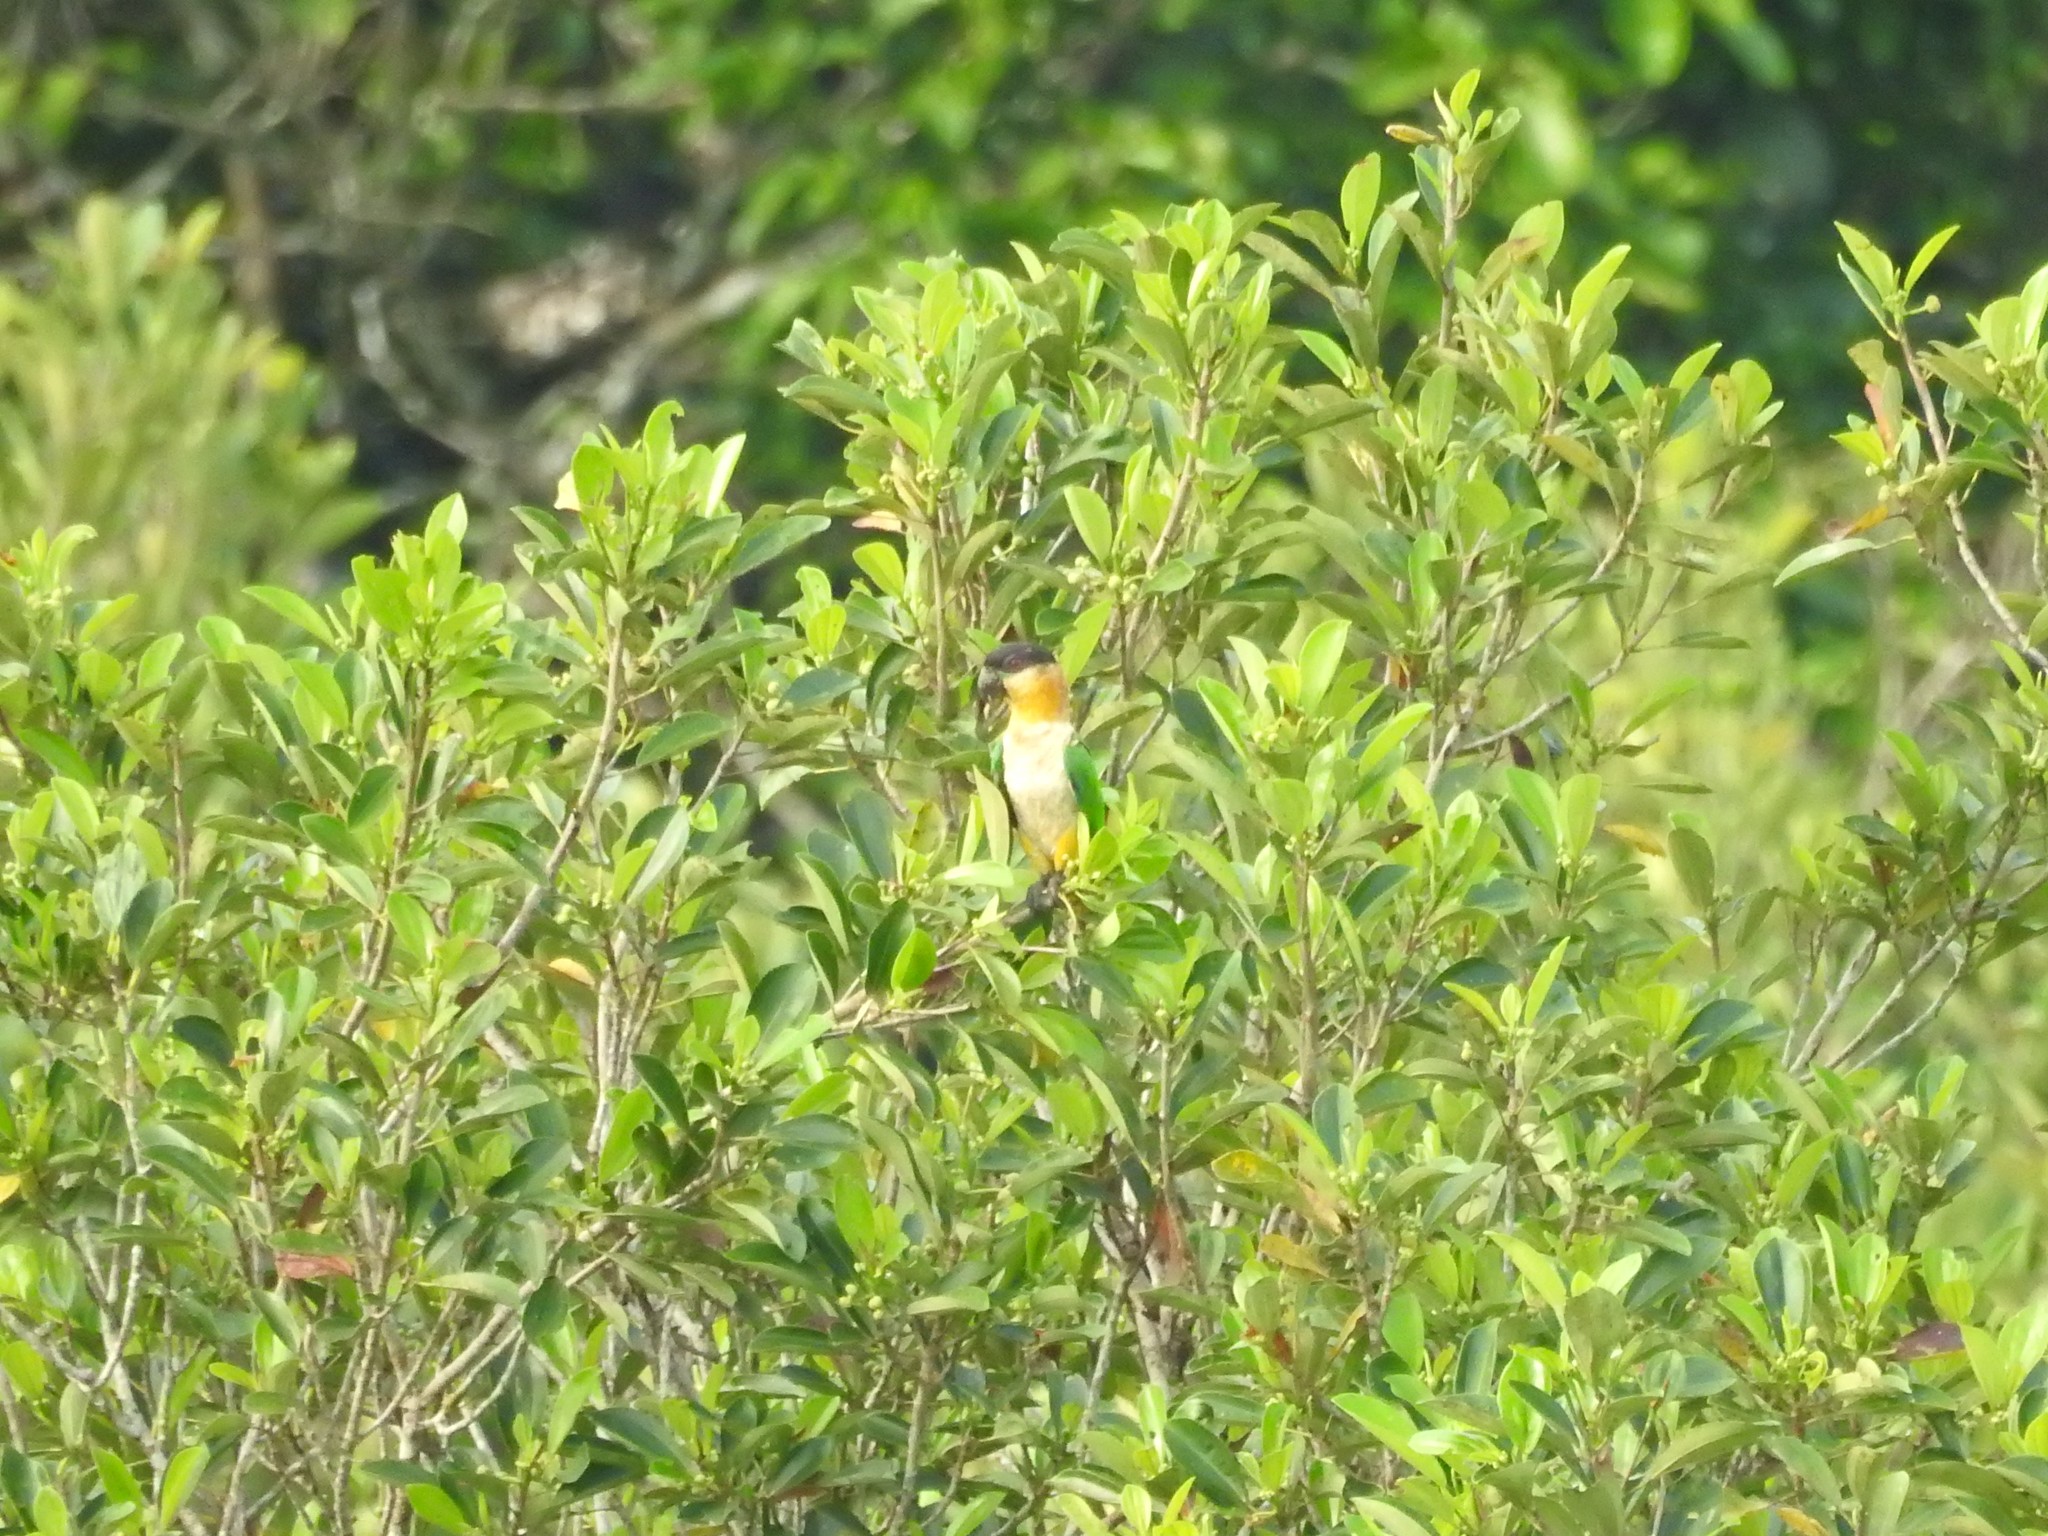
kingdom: Animalia
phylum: Chordata
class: Aves
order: Psittaciformes
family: Psittacidae
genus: Pionites
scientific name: Pionites melanocephalus
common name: Black-headed parrot
